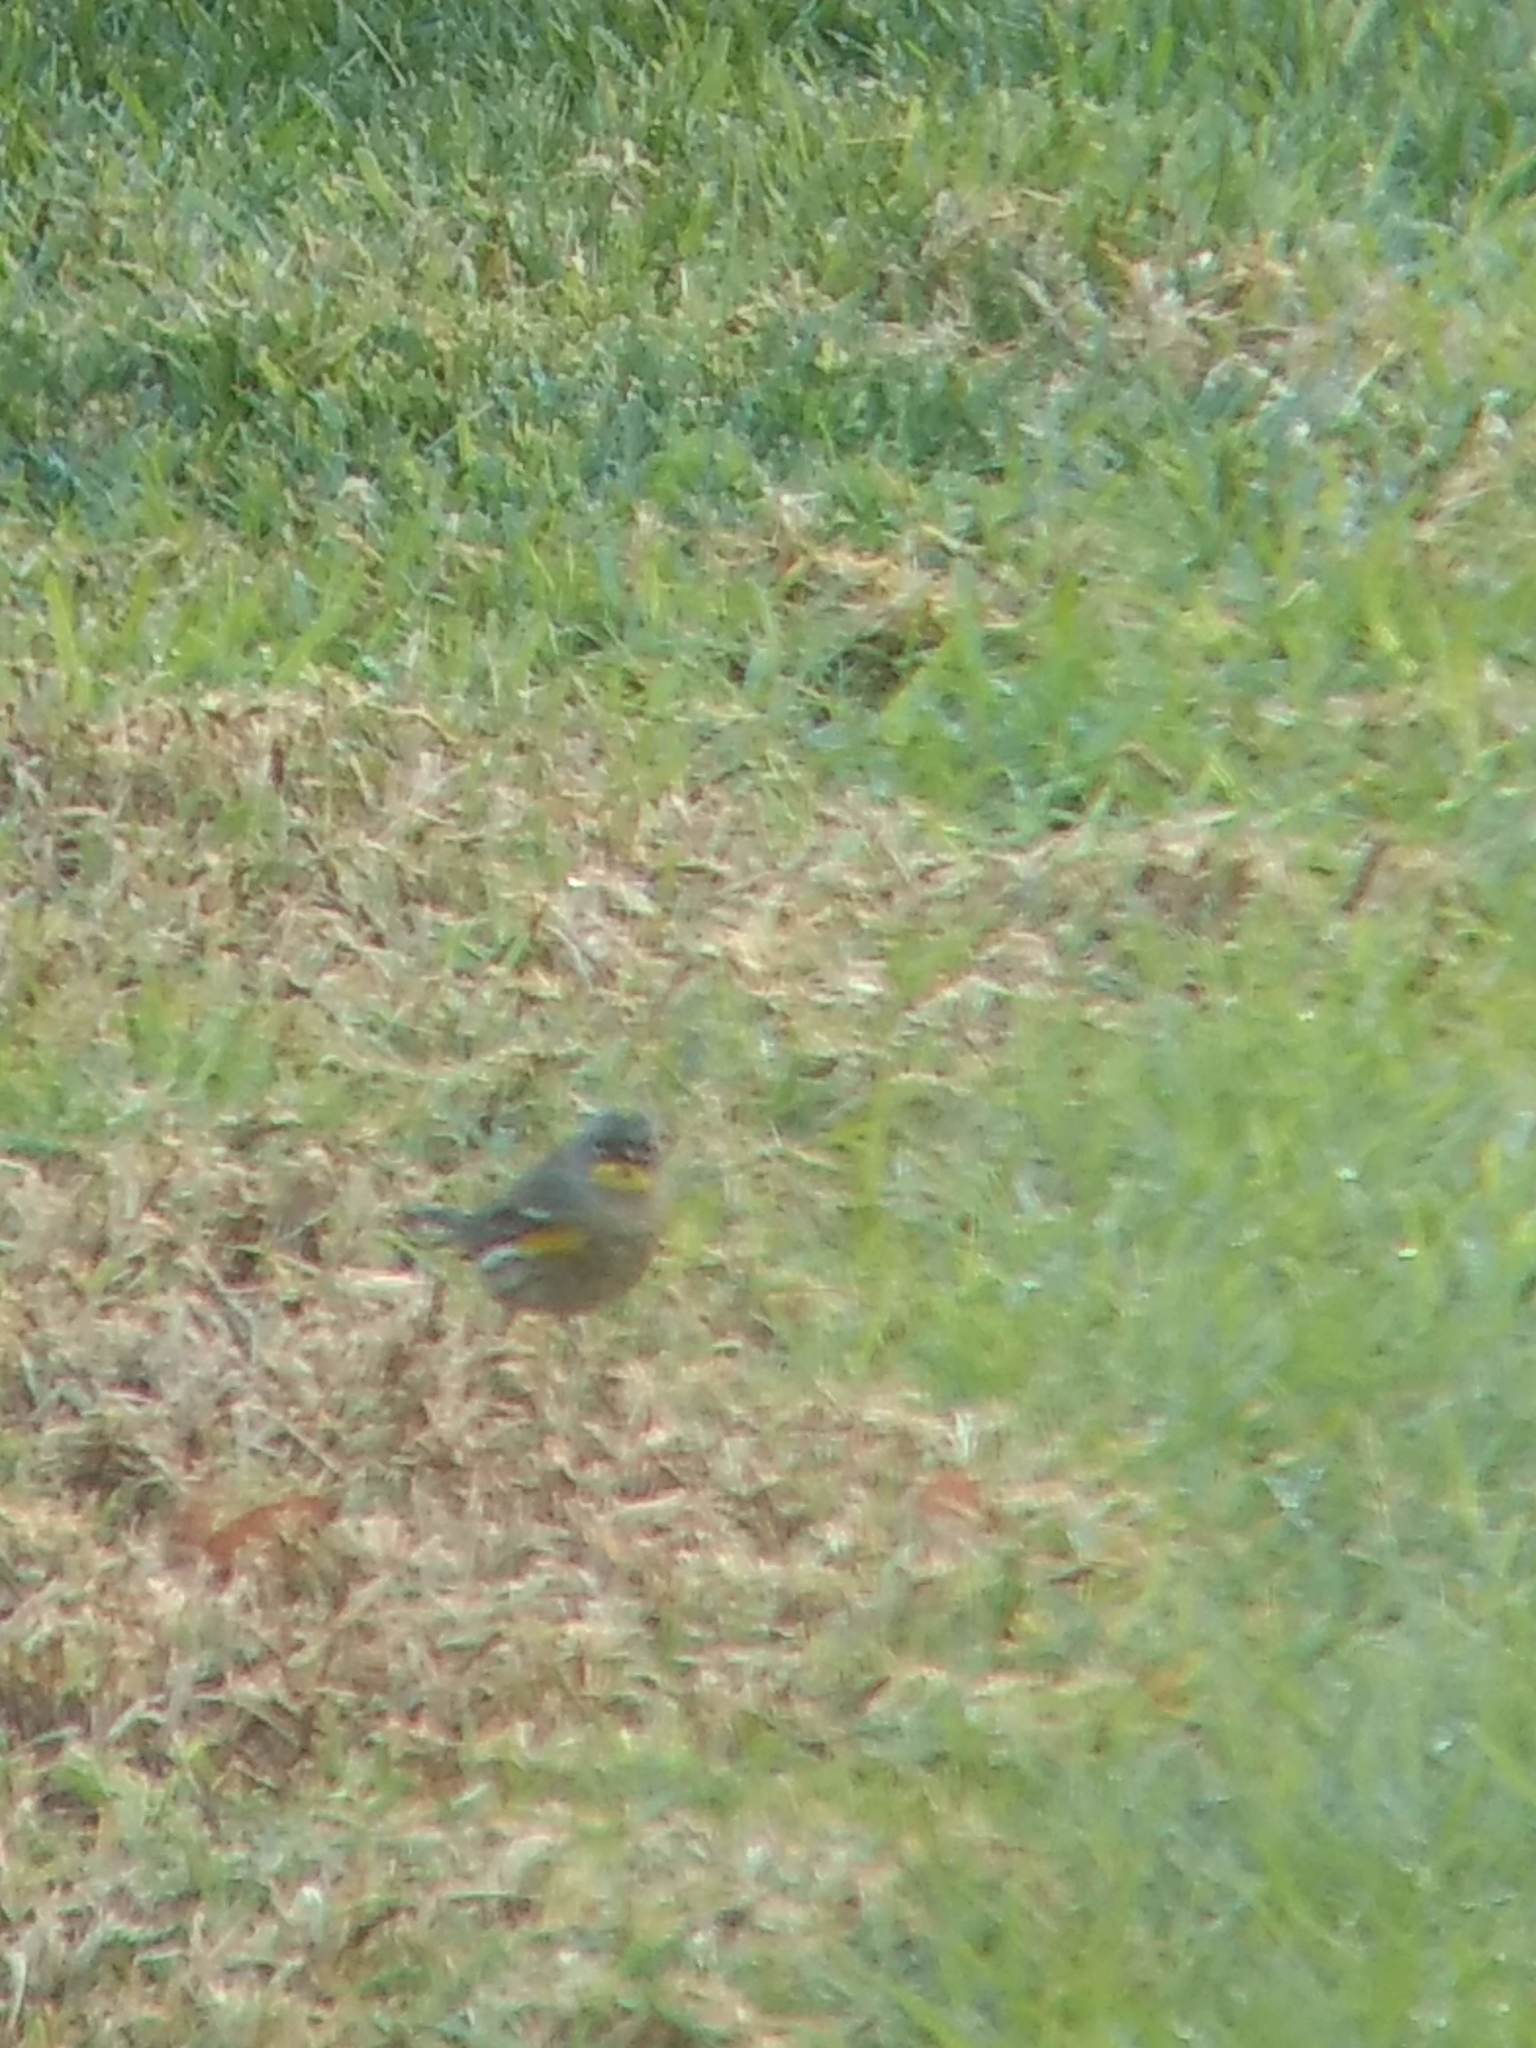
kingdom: Animalia
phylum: Chordata
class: Aves
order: Passeriformes
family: Parulidae
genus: Setophaga
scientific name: Setophaga coronata
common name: Myrtle warbler
